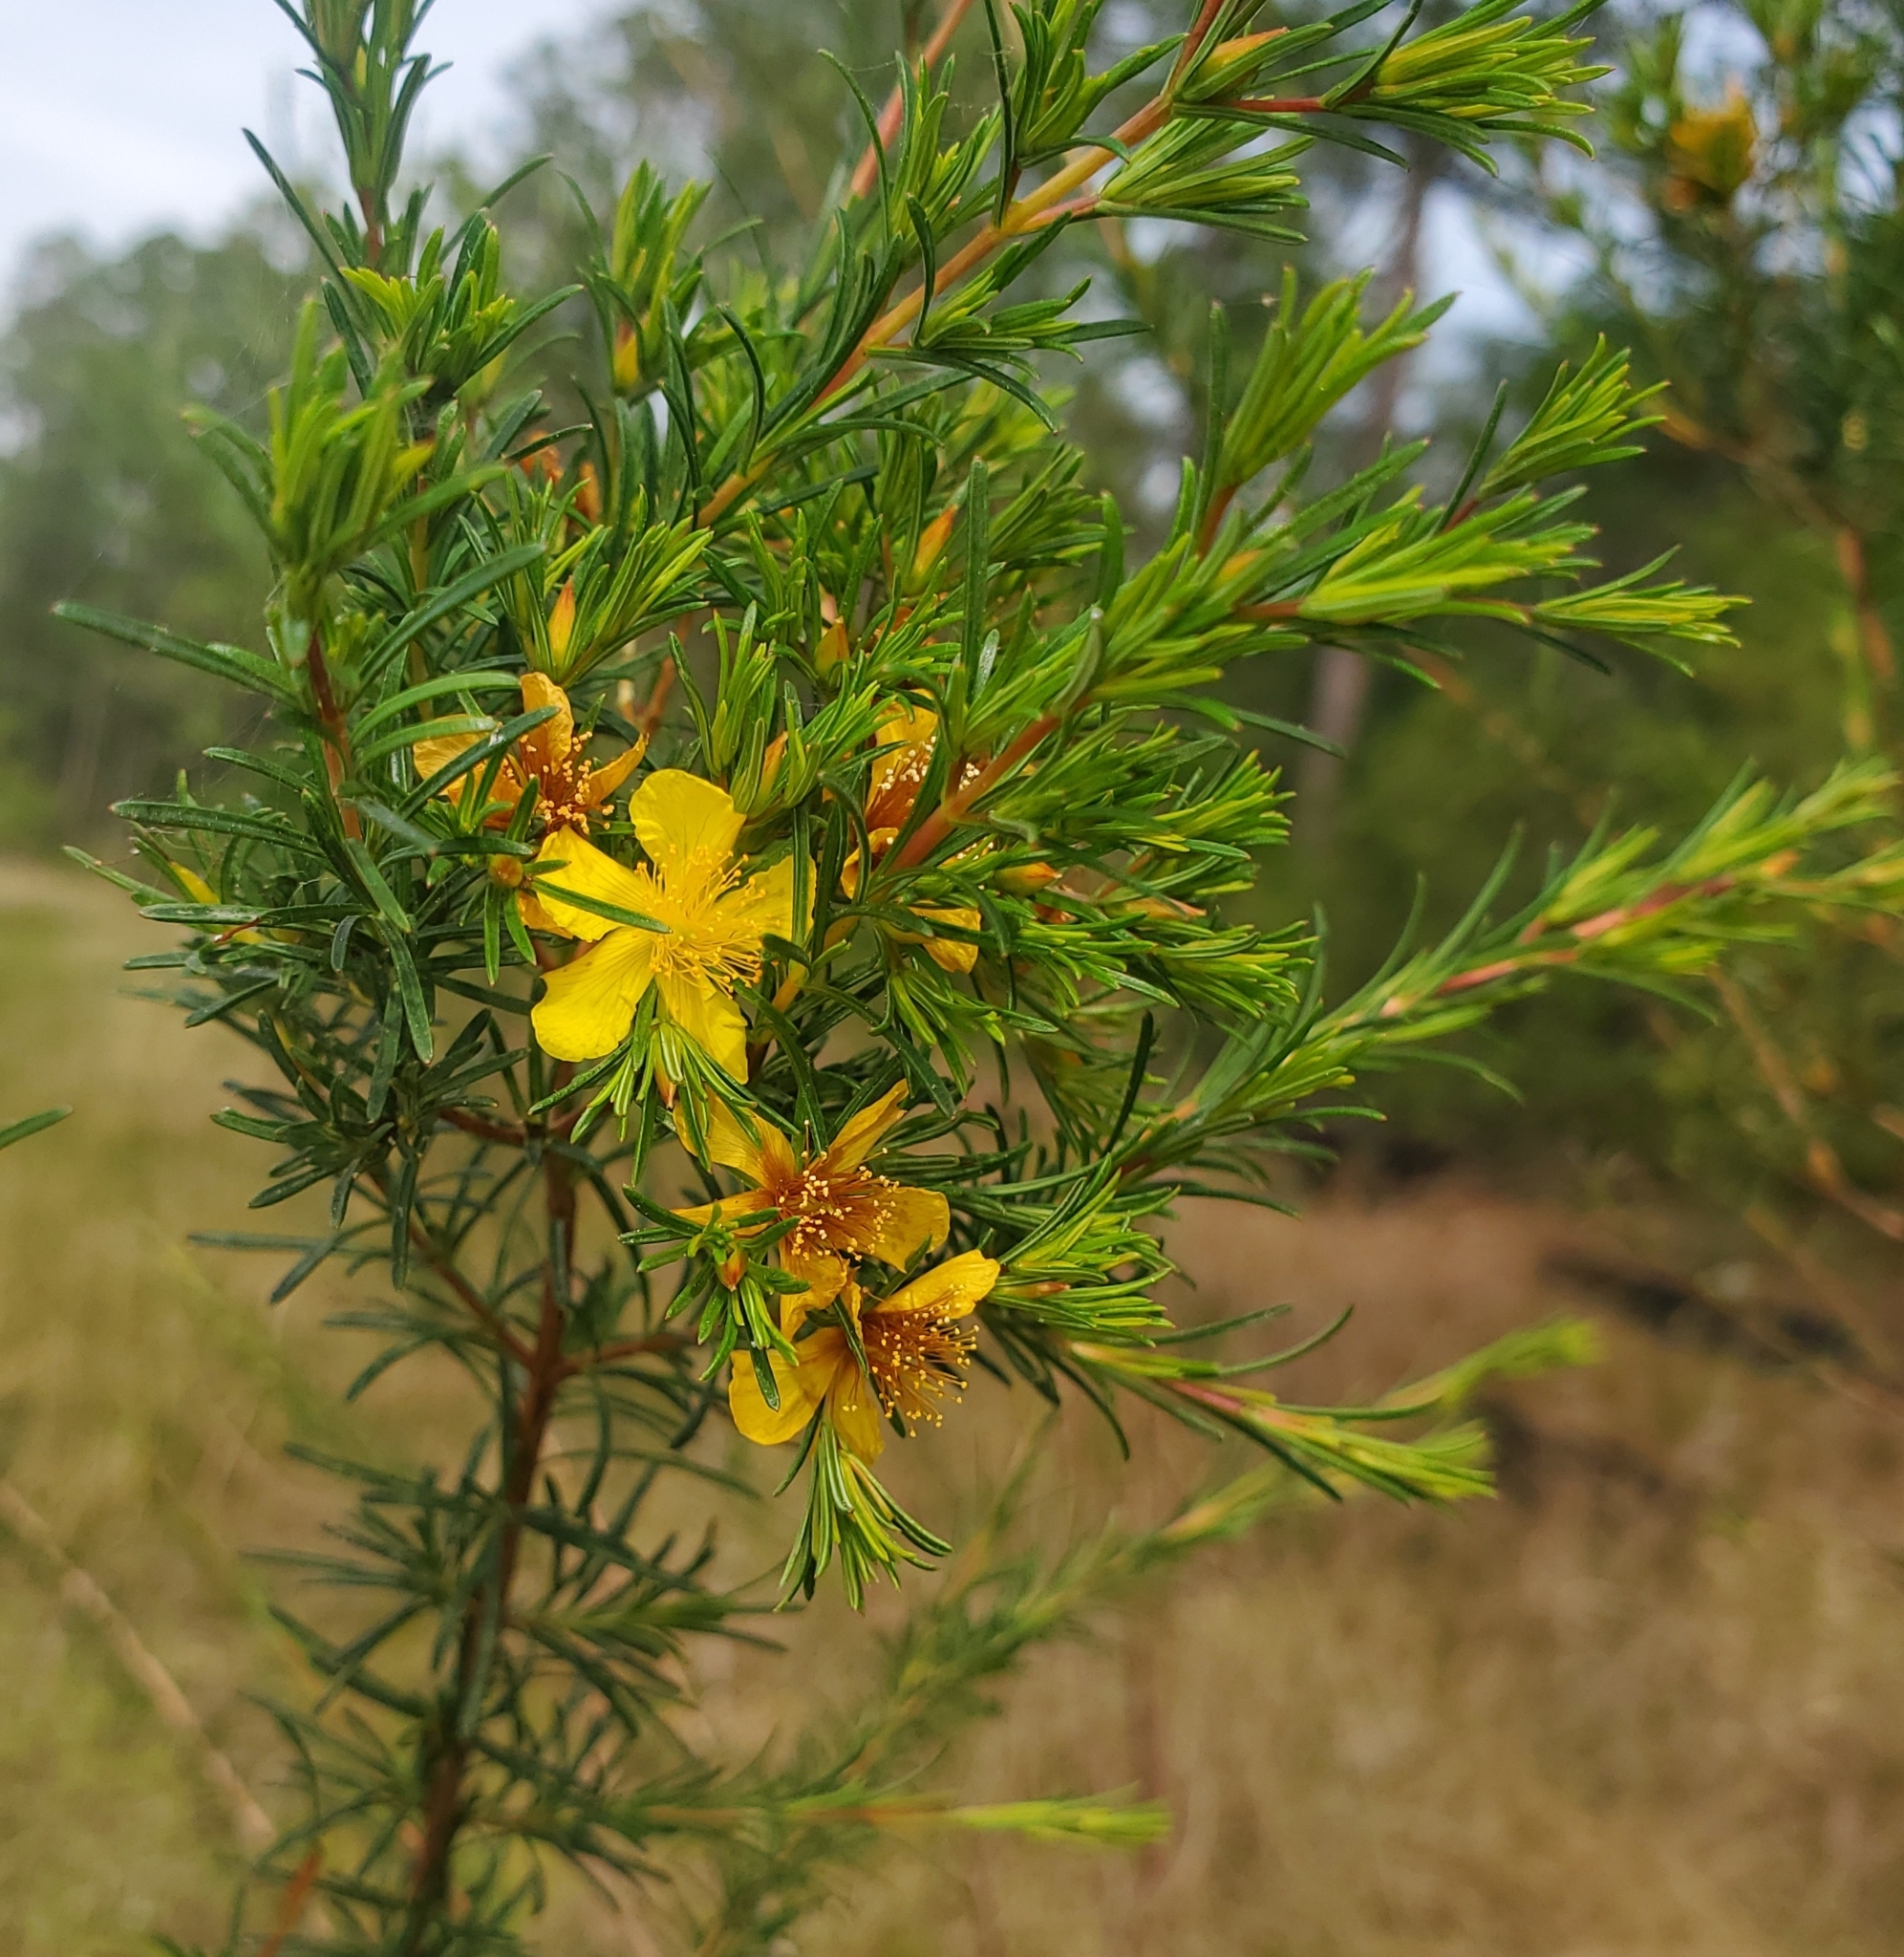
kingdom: Plantae
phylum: Tracheophyta
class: Magnoliopsida
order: Malpighiales
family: Hypericaceae
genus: Hypericum
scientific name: Hypericum fasciculatum
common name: Peelbark st. john's wort
